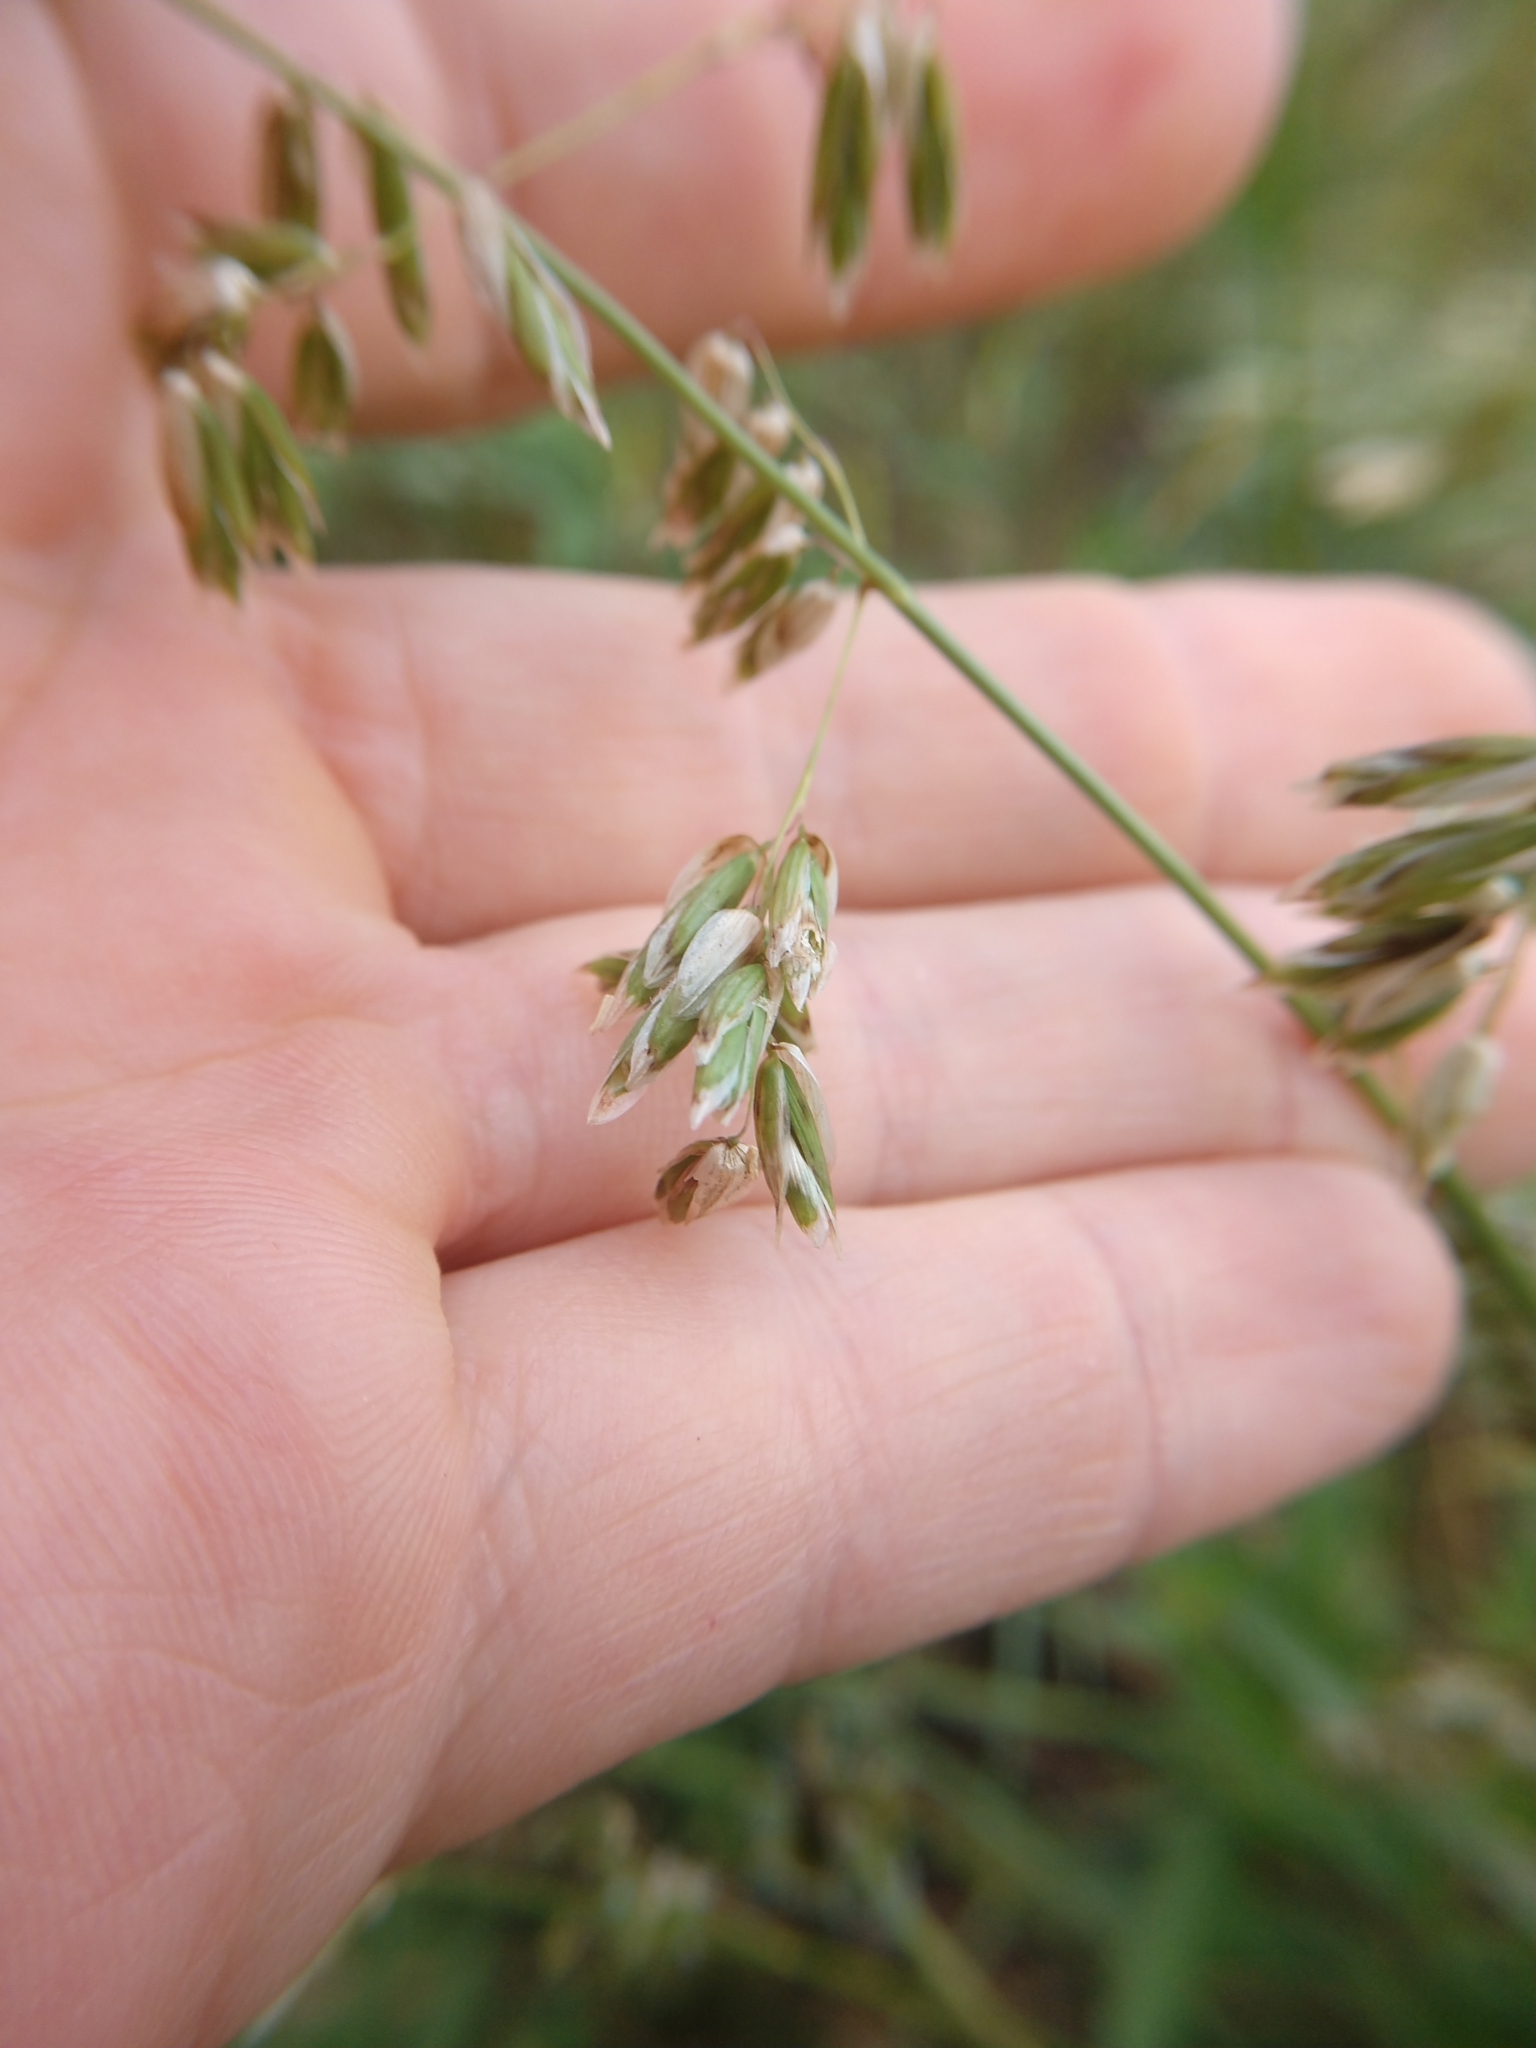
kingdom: Plantae
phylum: Tracheophyta
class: Liliopsida
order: Poales
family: Poaceae
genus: Melica
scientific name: Melica nitens
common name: Three-flower melic
